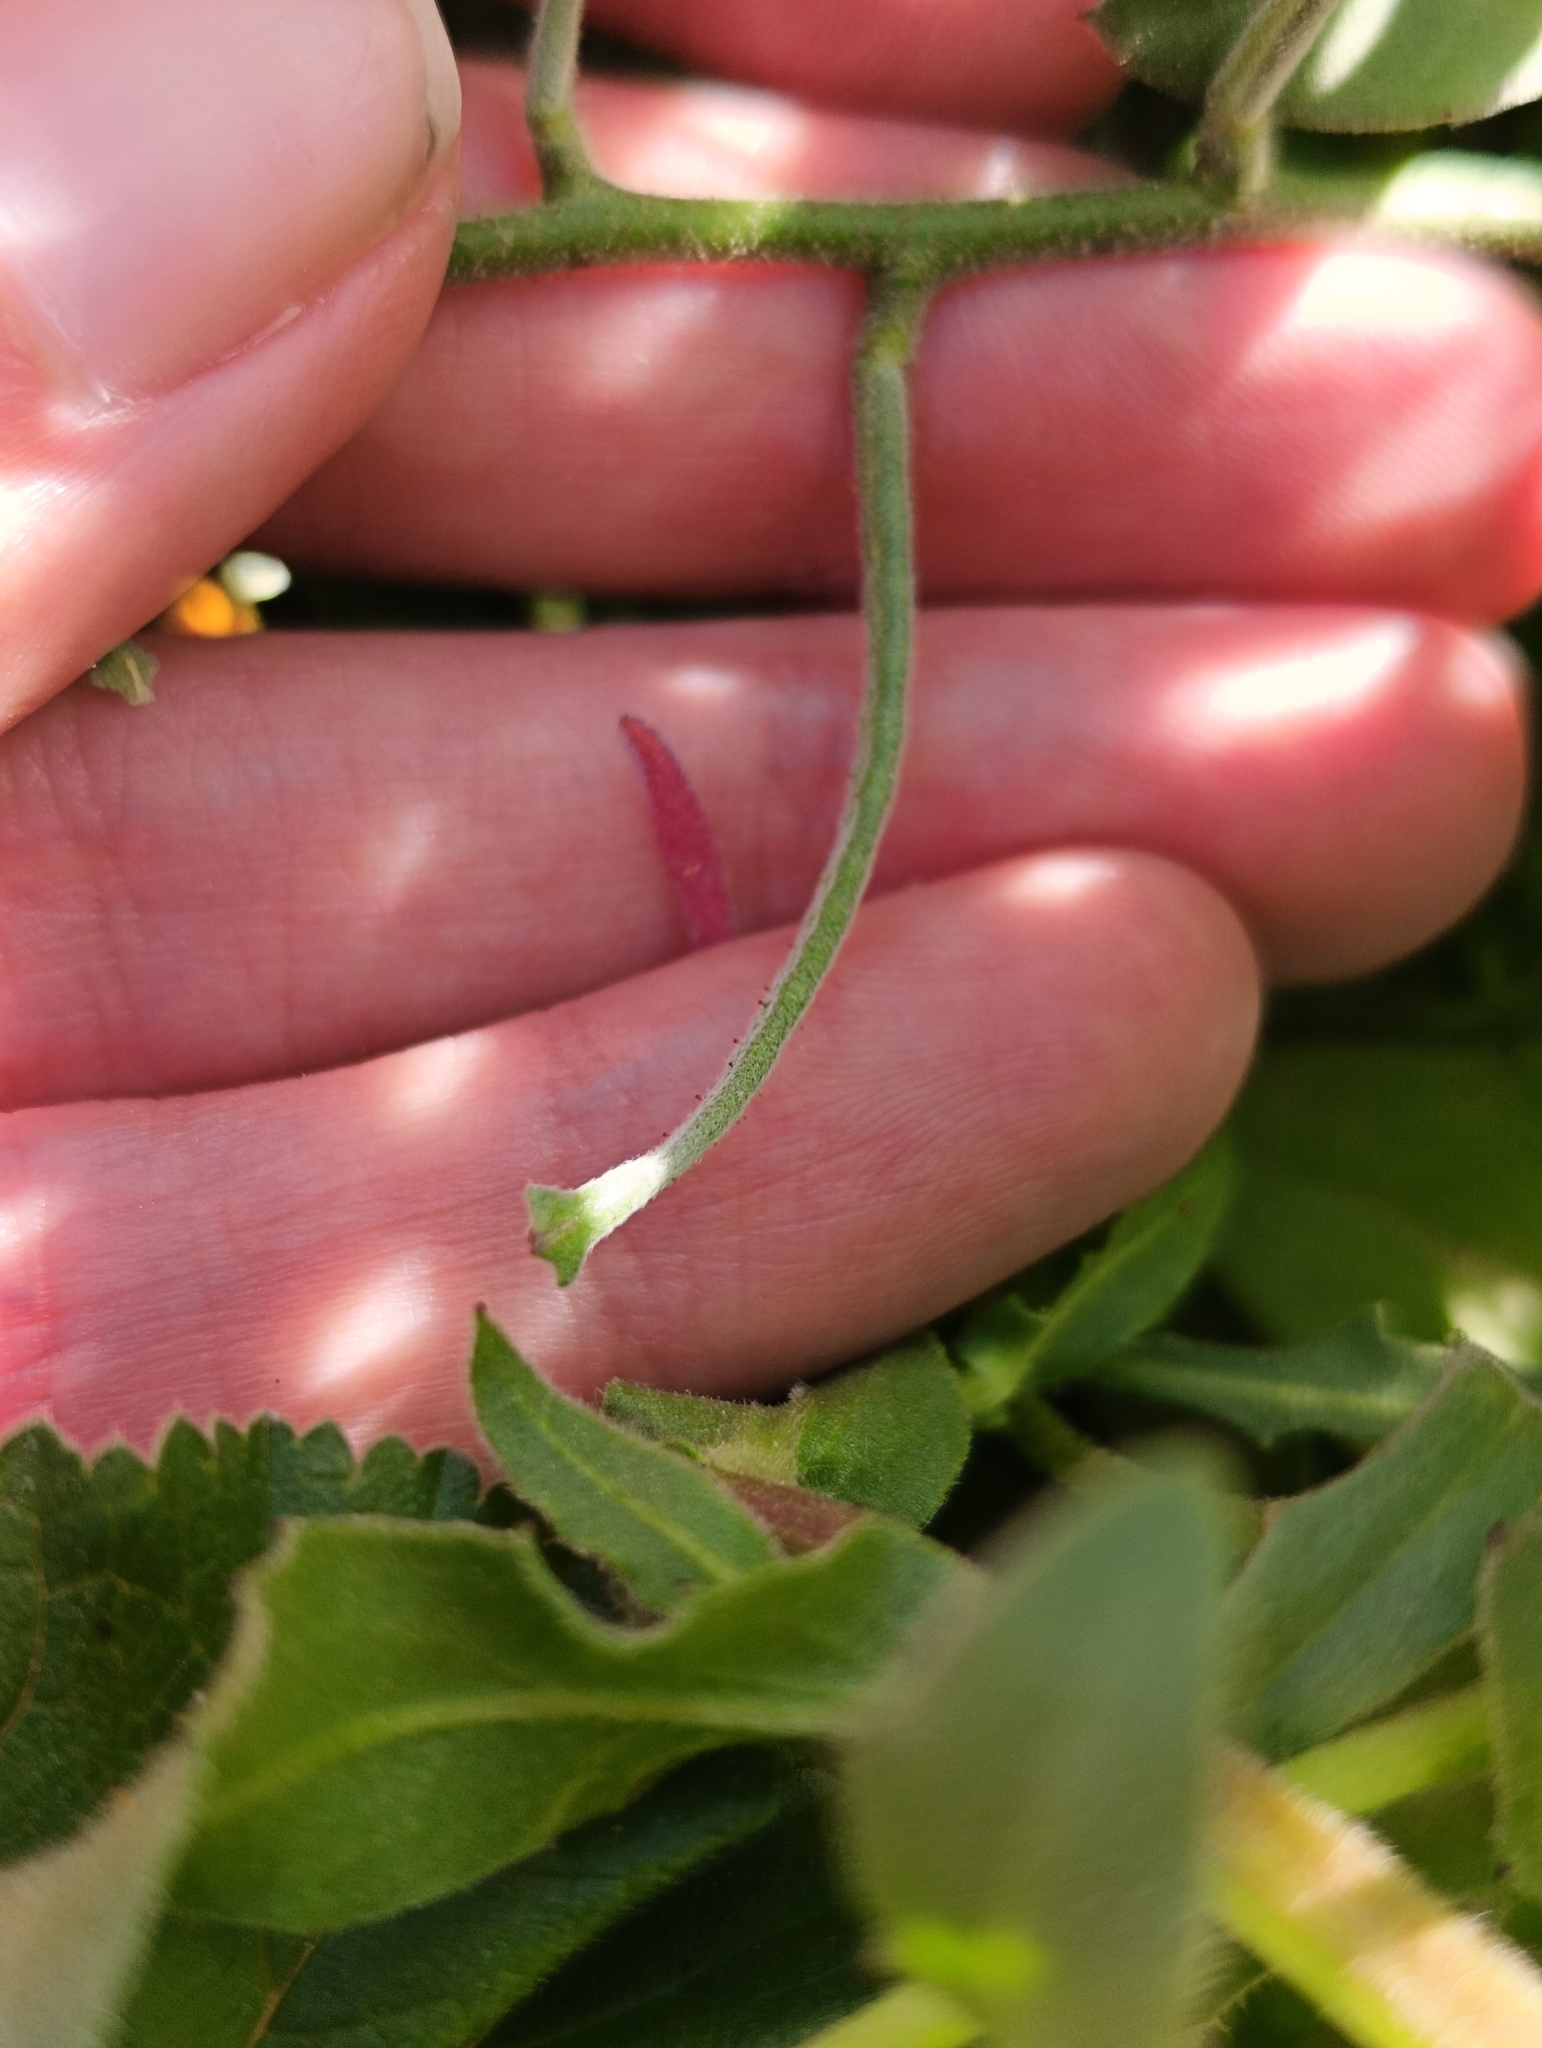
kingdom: Plantae
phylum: Tracheophyta
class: Magnoliopsida
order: Brassicales
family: Brassicaceae
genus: Matthiola
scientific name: Matthiola lunata
